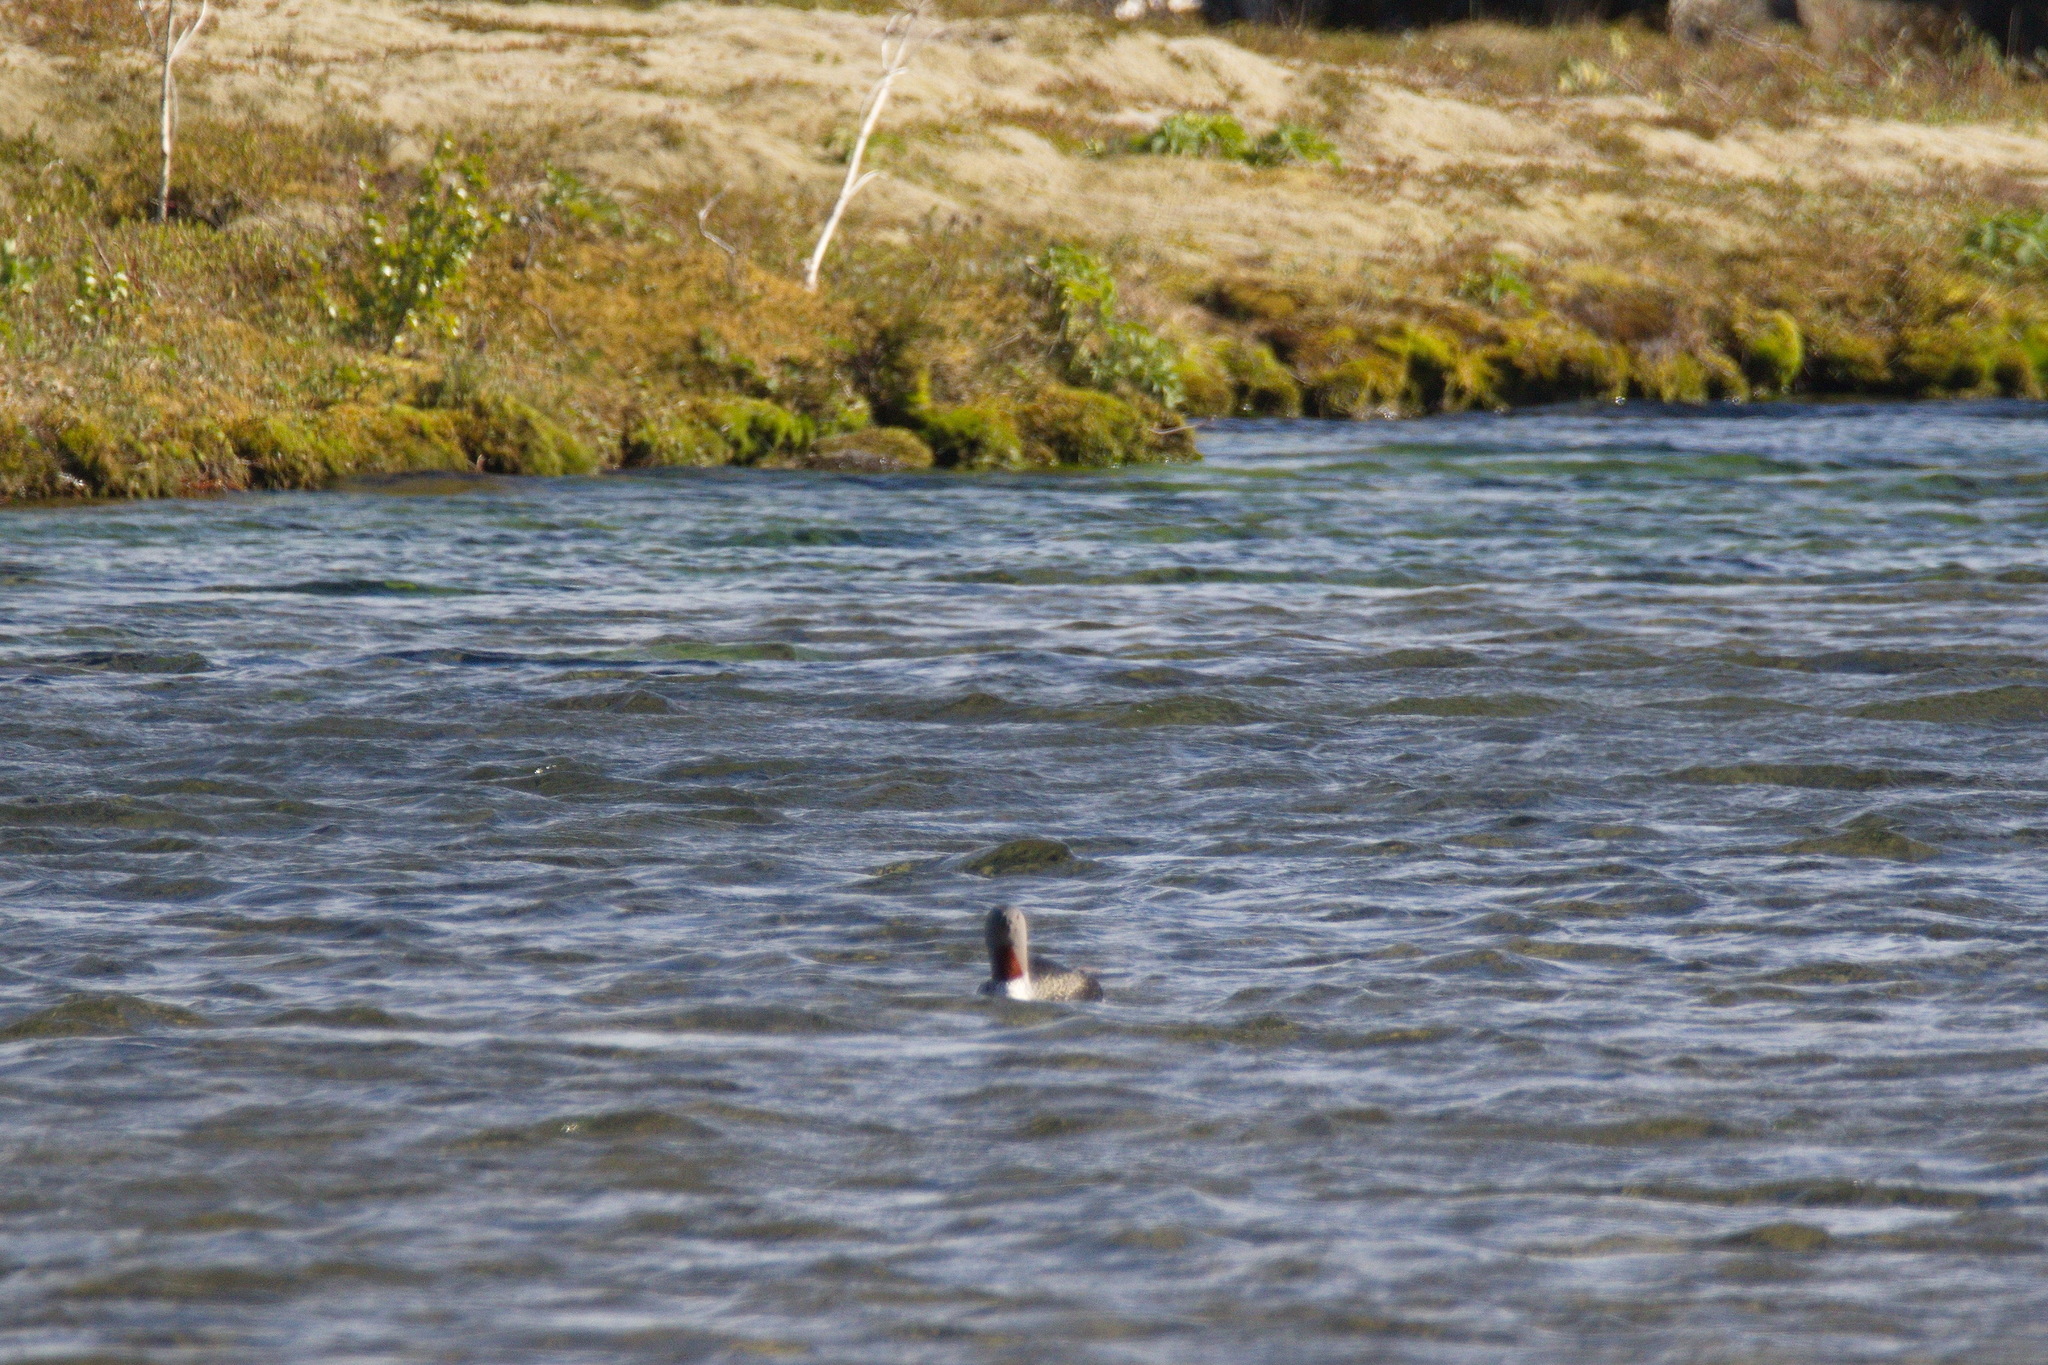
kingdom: Animalia
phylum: Chordata
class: Aves
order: Gaviiformes
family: Gaviidae
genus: Gavia
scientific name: Gavia stellata
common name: Red-throated loon
